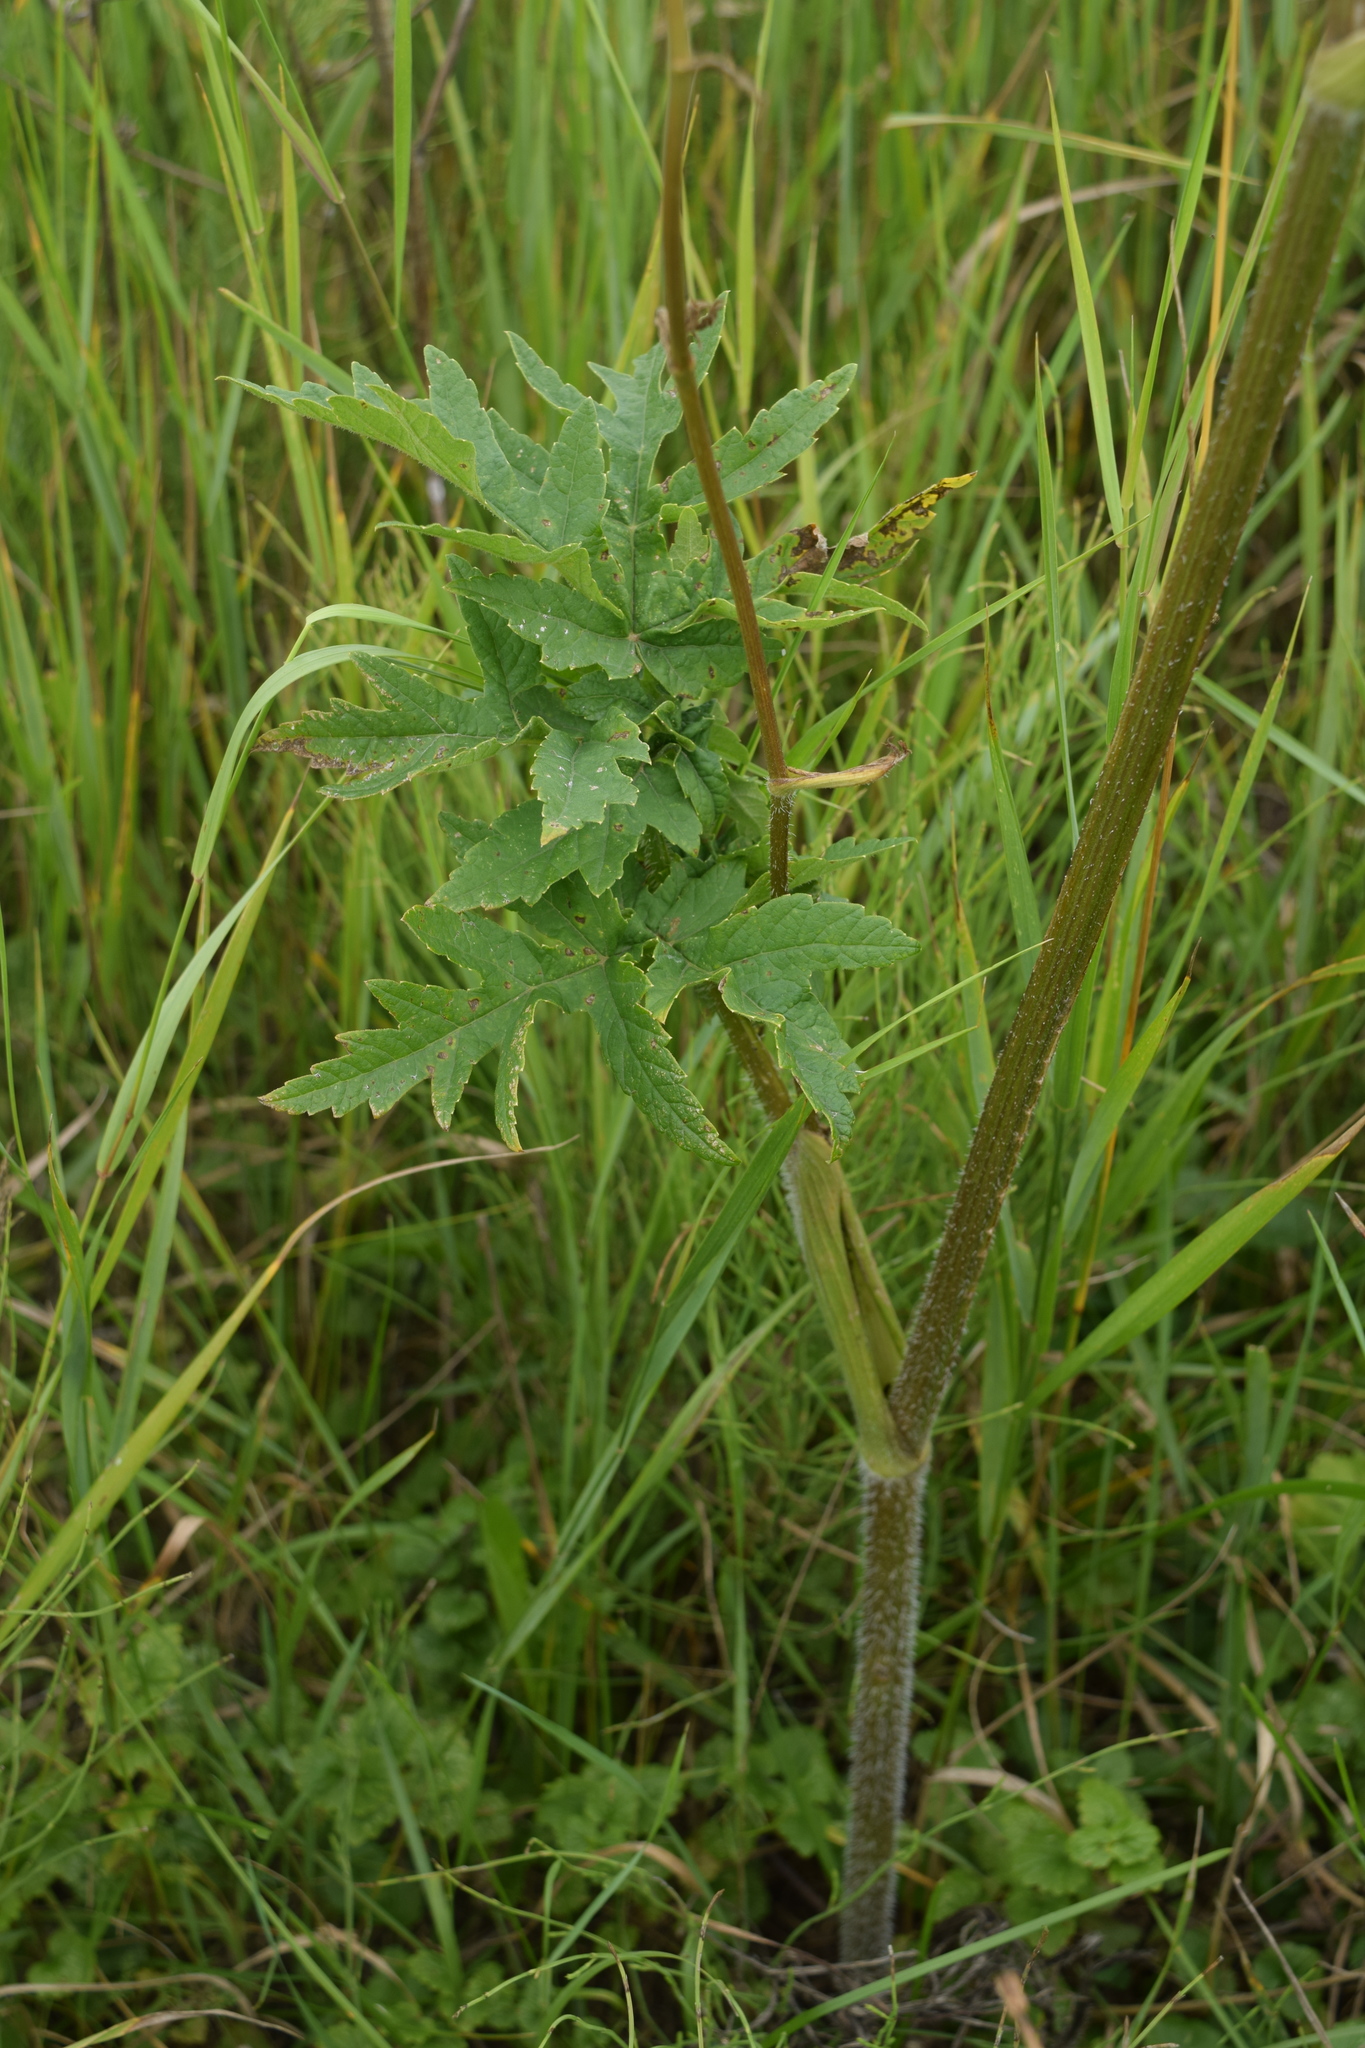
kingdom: Plantae
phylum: Tracheophyta
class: Magnoliopsida
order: Apiales
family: Apiaceae
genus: Heracleum
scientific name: Heracleum sphondylium
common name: Hogweed
